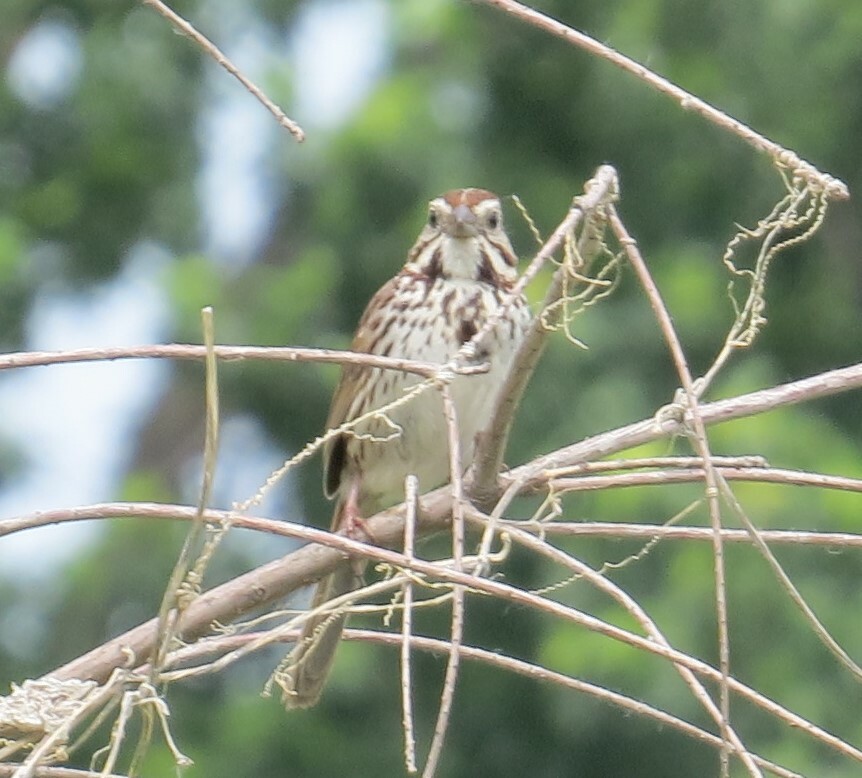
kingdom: Animalia
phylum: Chordata
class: Aves
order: Passeriformes
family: Passerellidae
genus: Melospiza
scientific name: Melospiza melodia
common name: Song sparrow
